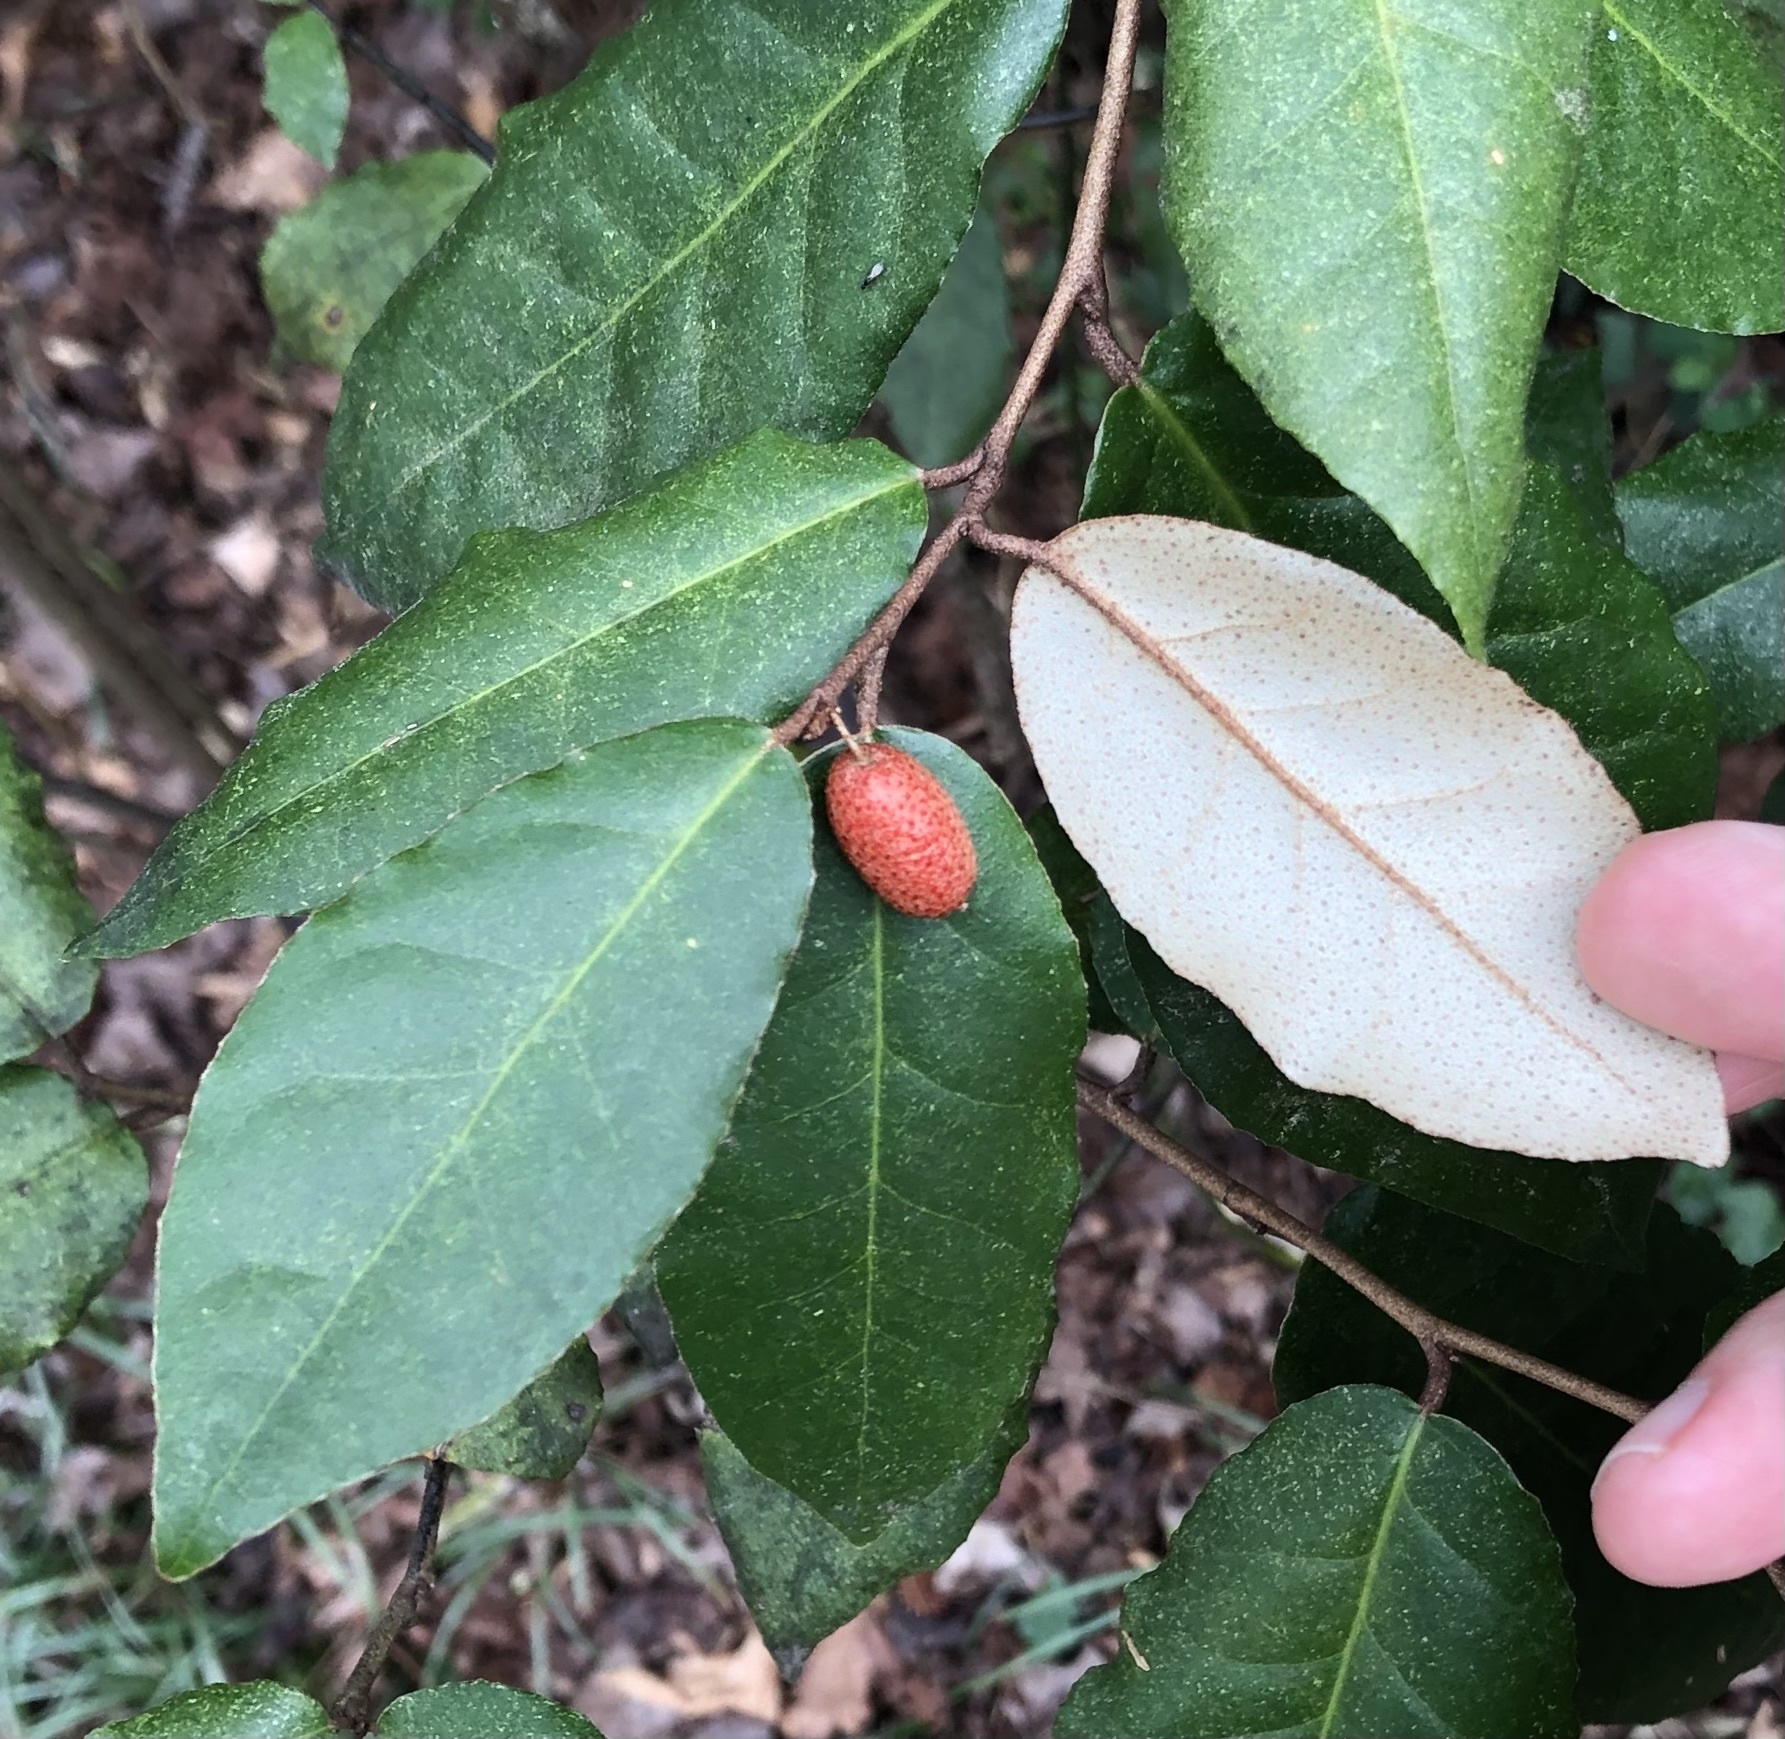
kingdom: Plantae
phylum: Tracheophyta
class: Magnoliopsida
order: Rosales
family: Elaeagnaceae
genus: Elaeagnus
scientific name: Elaeagnus pungens
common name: Spiny oleaster
